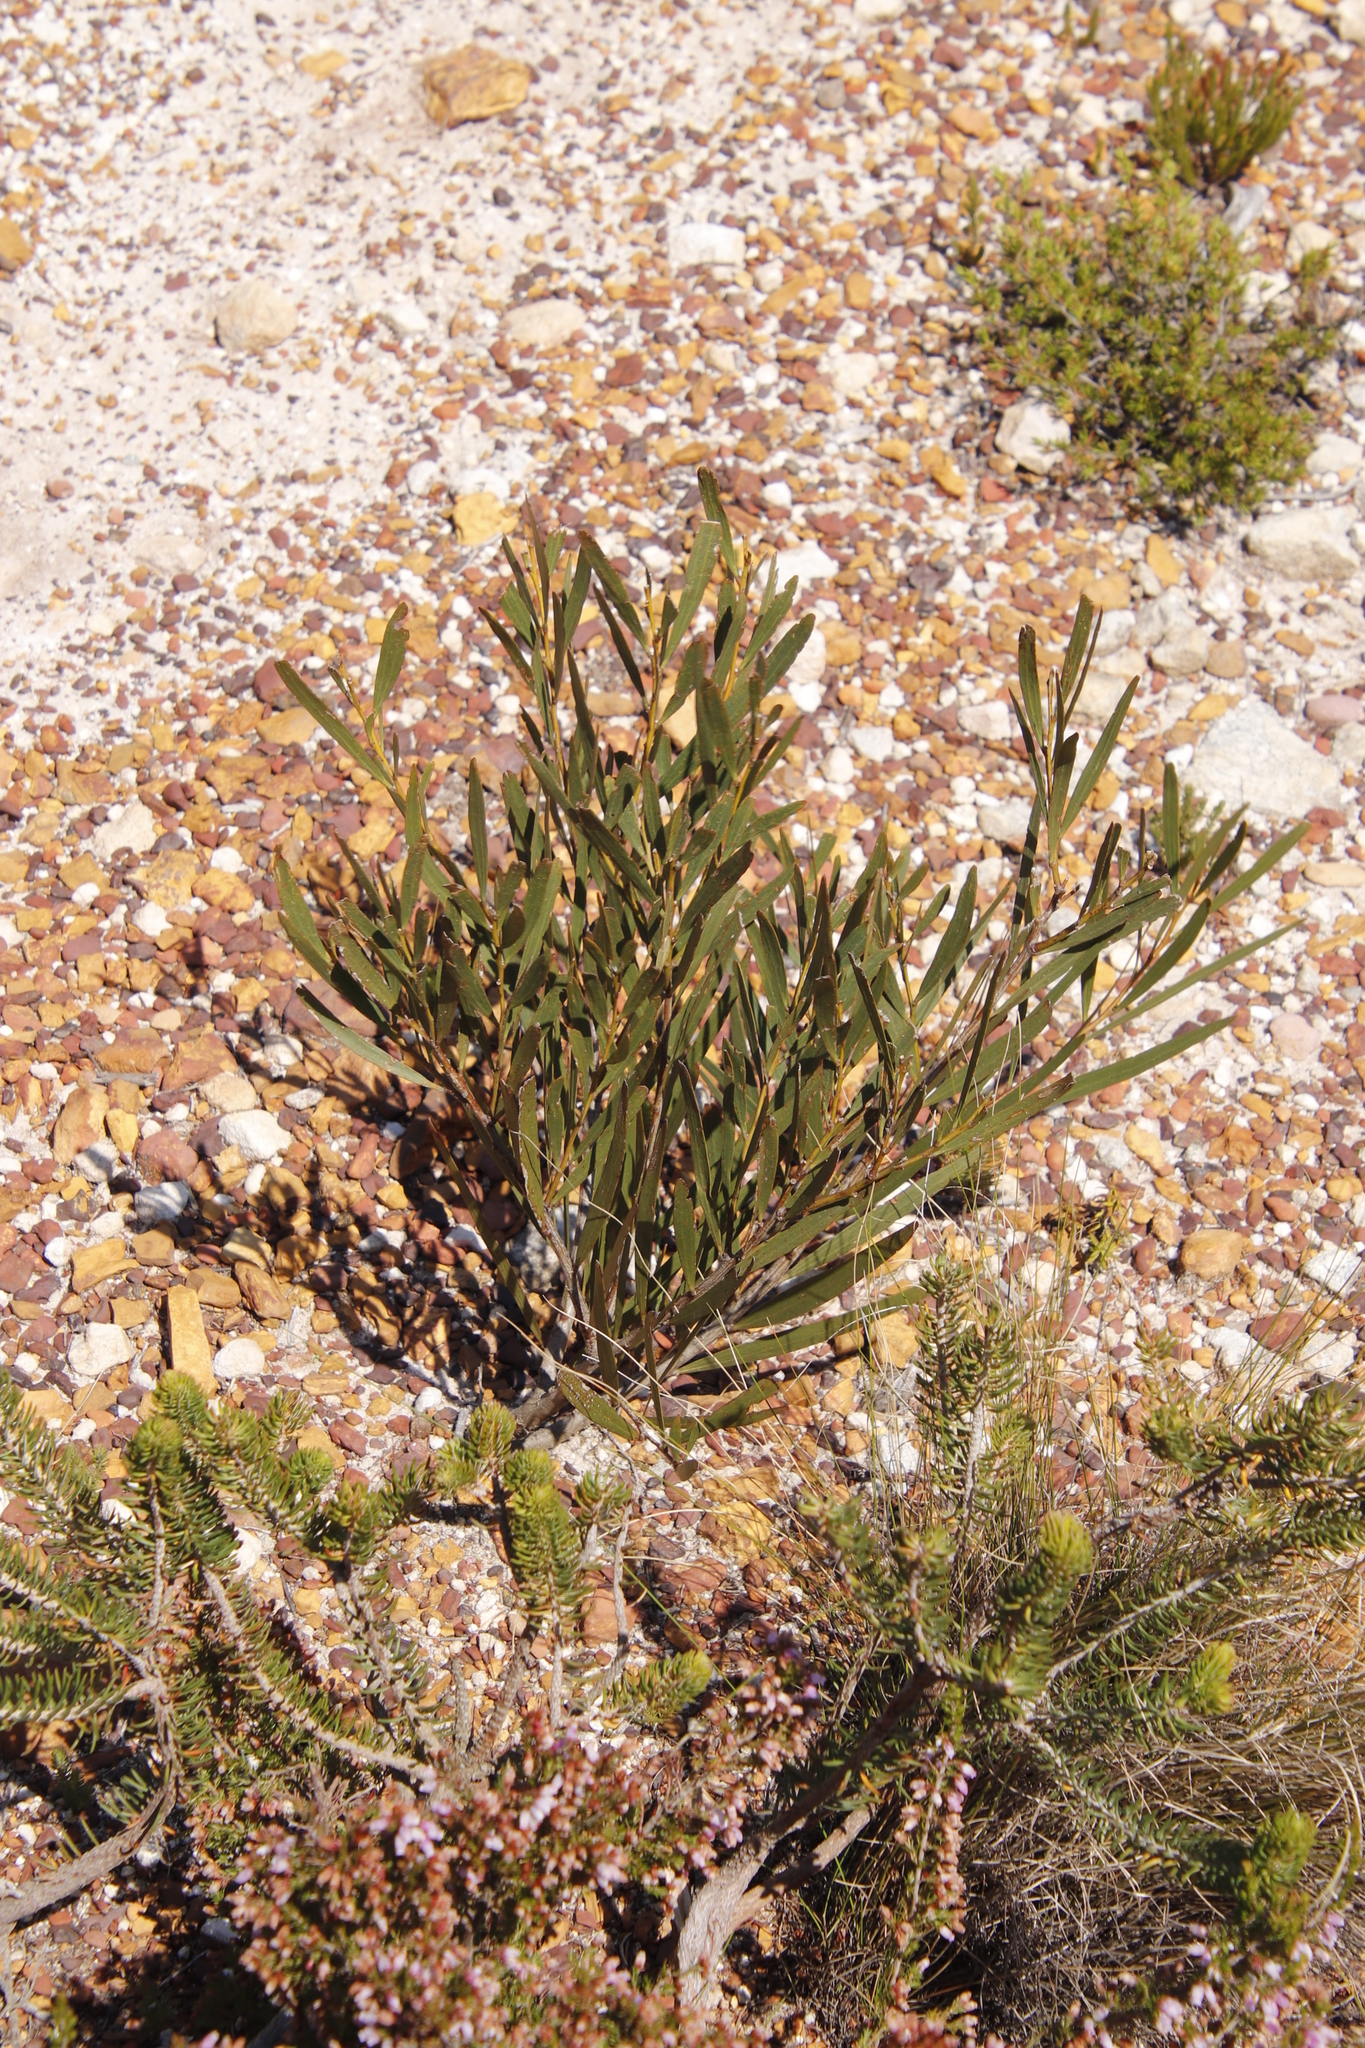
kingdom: Plantae
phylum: Tracheophyta
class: Magnoliopsida
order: Fabales
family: Fabaceae
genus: Acacia
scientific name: Acacia longifolia
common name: Sydney golden wattle
